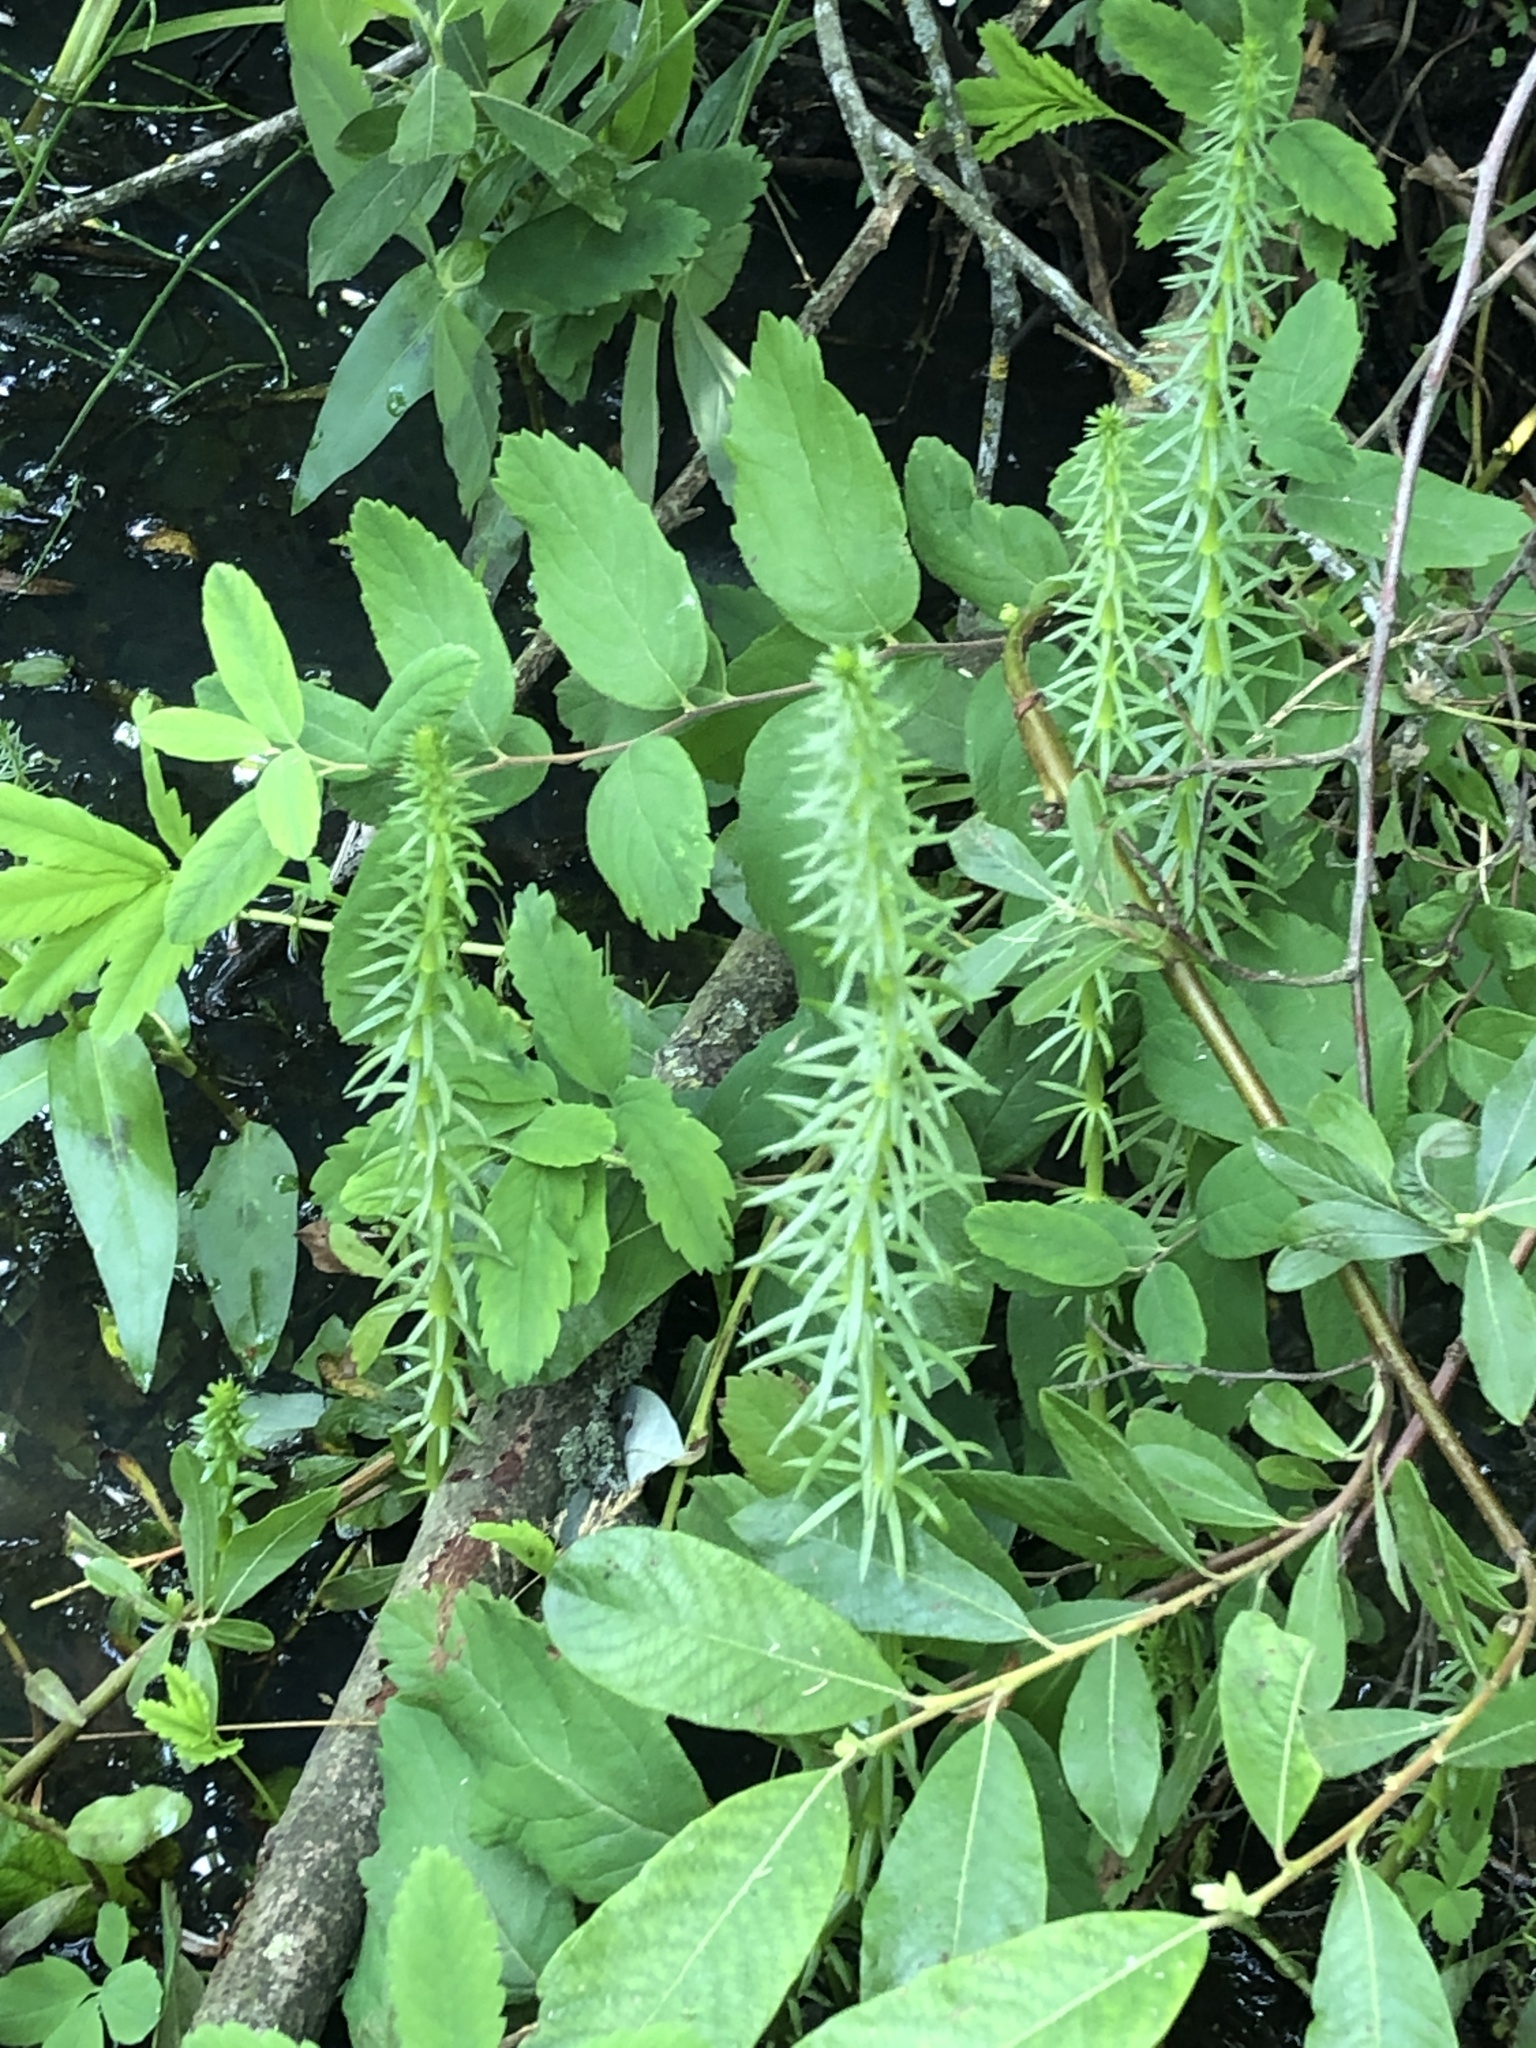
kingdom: Plantae
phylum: Tracheophyta
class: Magnoliopsida
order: Lamiales
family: Plantaginaceae
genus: Hippuris
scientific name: Hippuris vulgaris
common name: Mare's-tail
